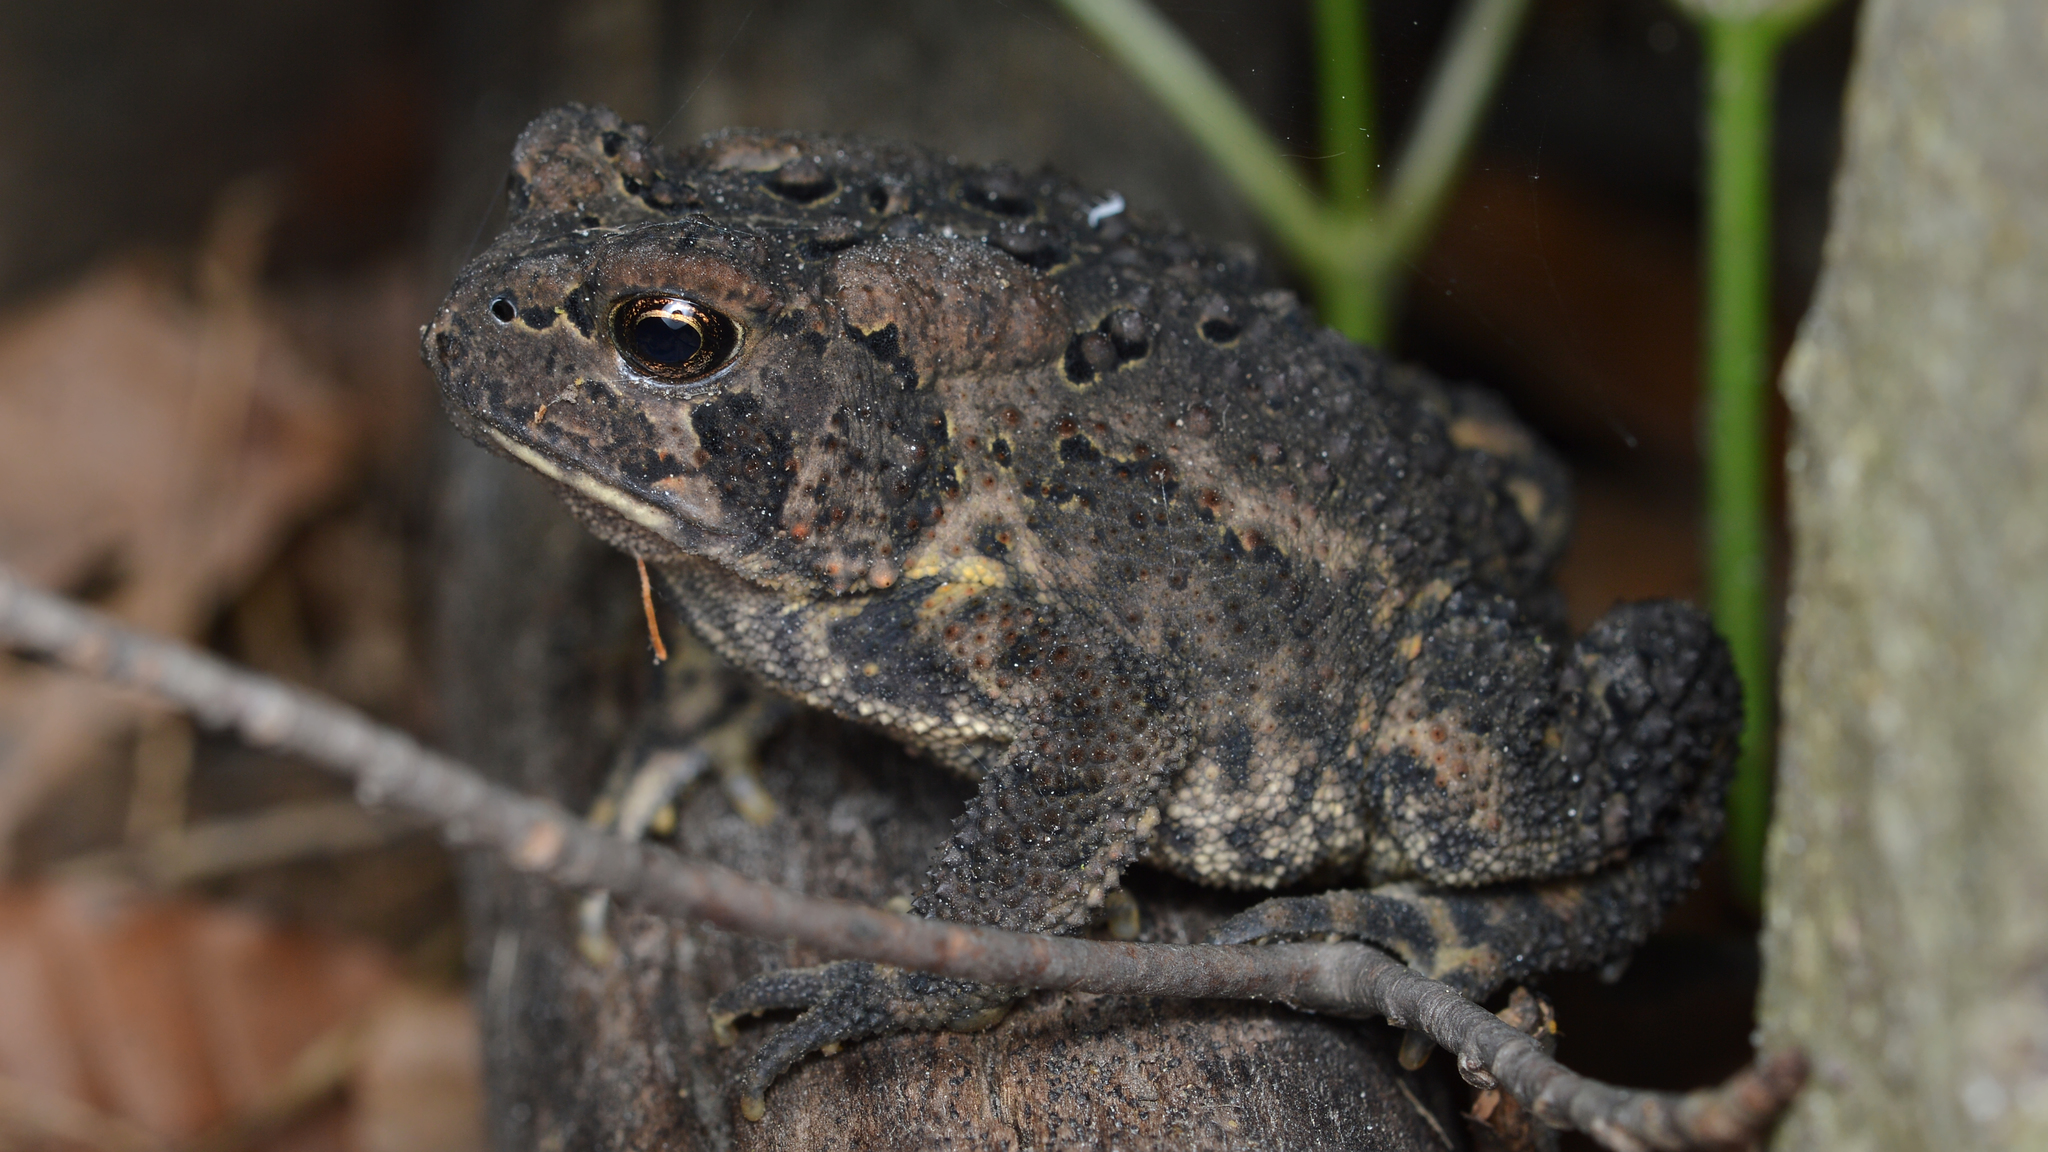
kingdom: Animalia
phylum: Chordata
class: Amphibia
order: Anura
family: Bufonidae
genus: Anaxyrus
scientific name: Anaxyrus americanus
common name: American toad
